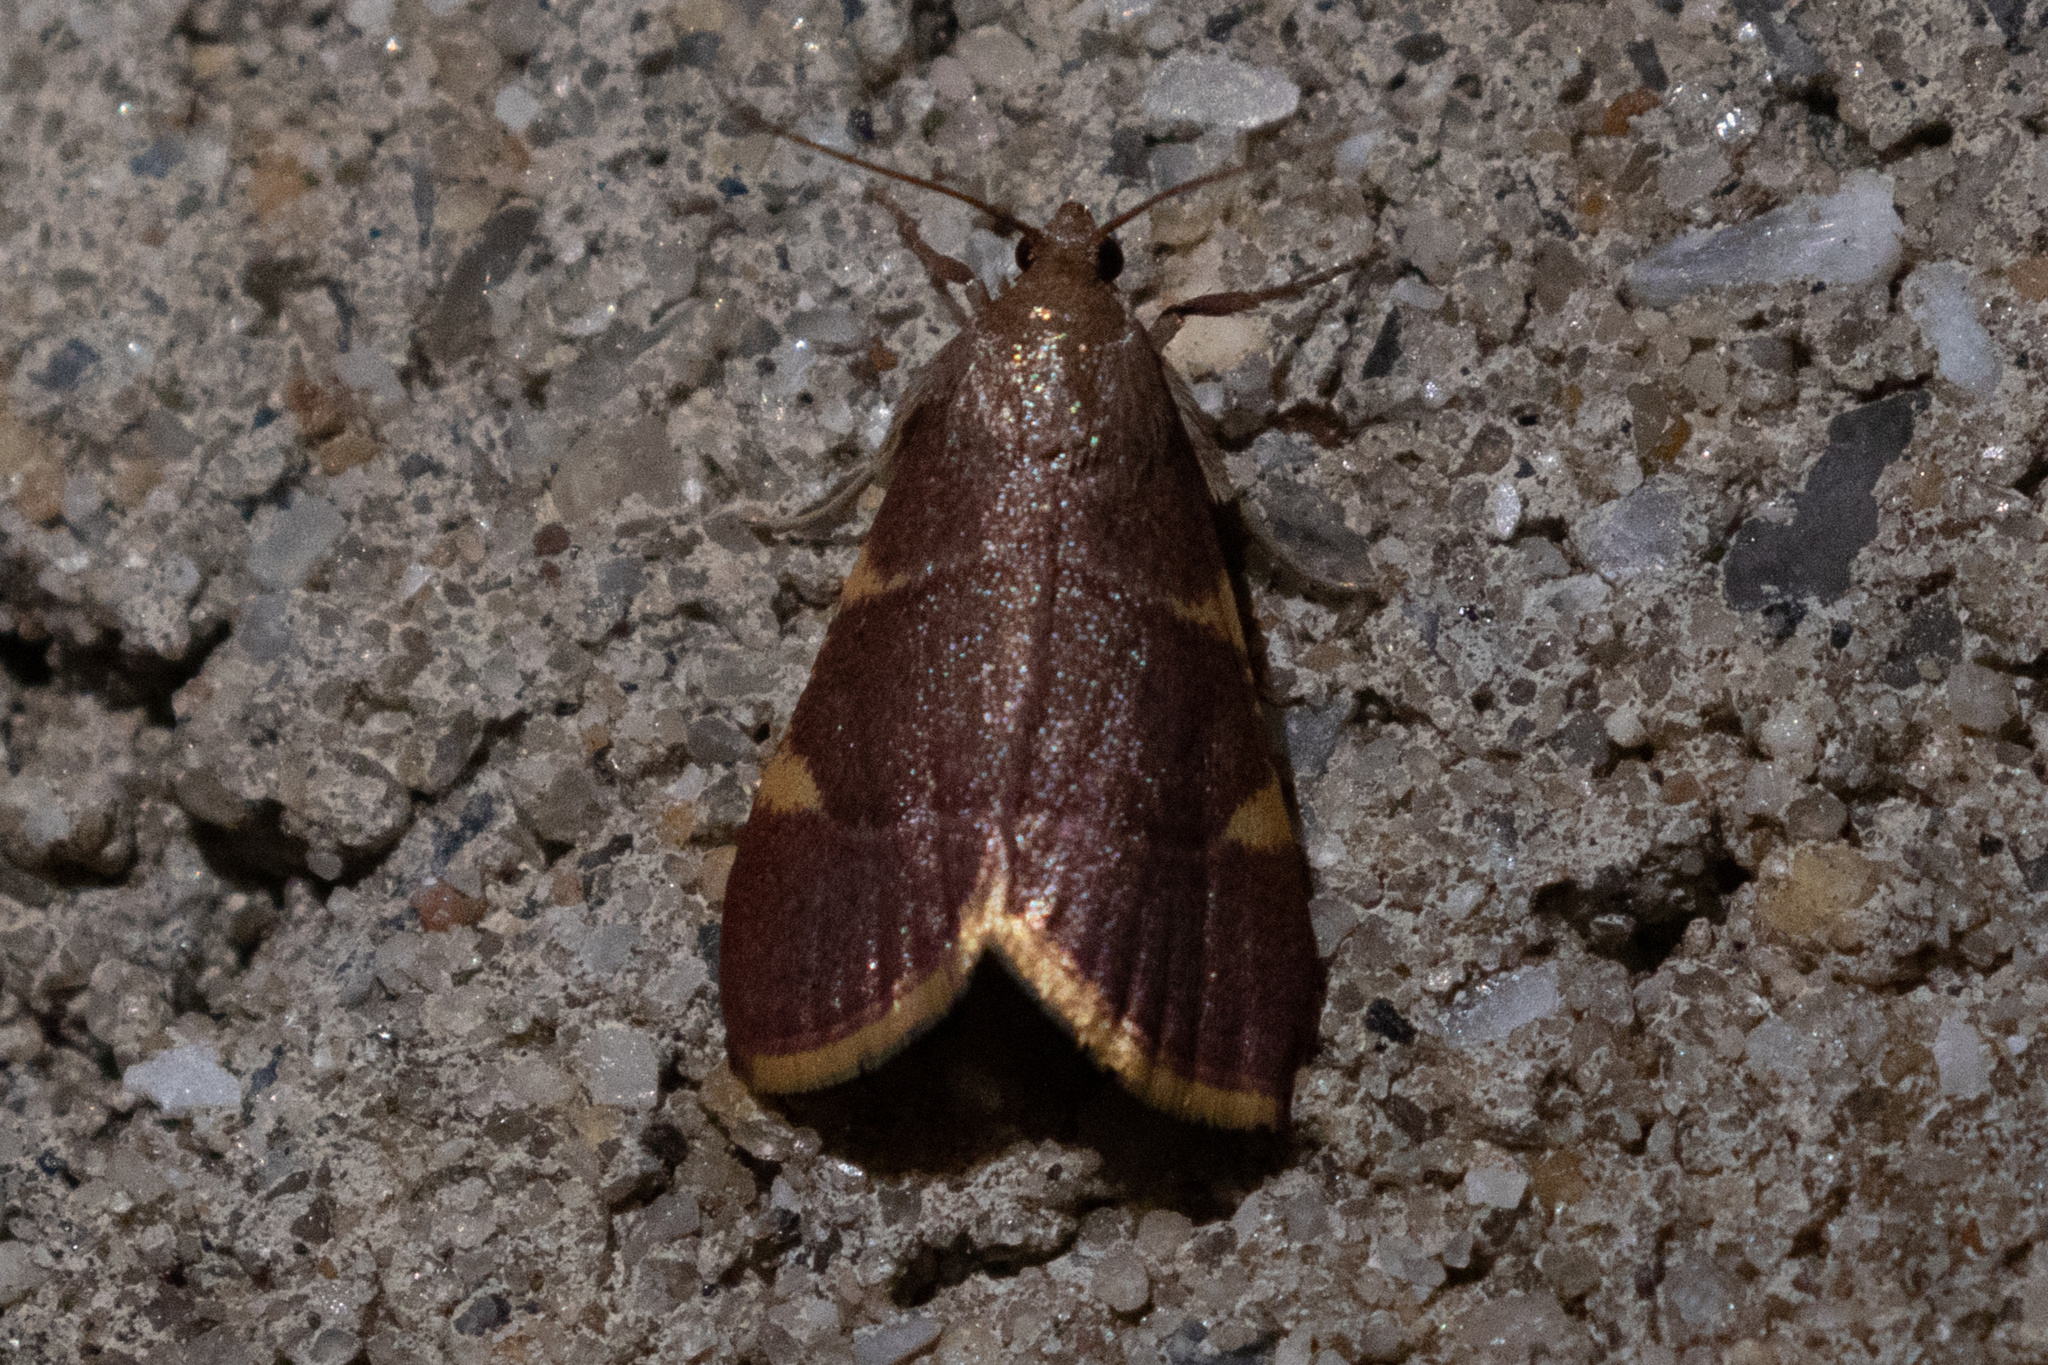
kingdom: Animalia
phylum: Arthropoda
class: Insecta
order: Lepidoptera
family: Pyralidae
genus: Hypsopygia
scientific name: Hypsopygia olinalis
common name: Yellow-fringed dolichomia moth
